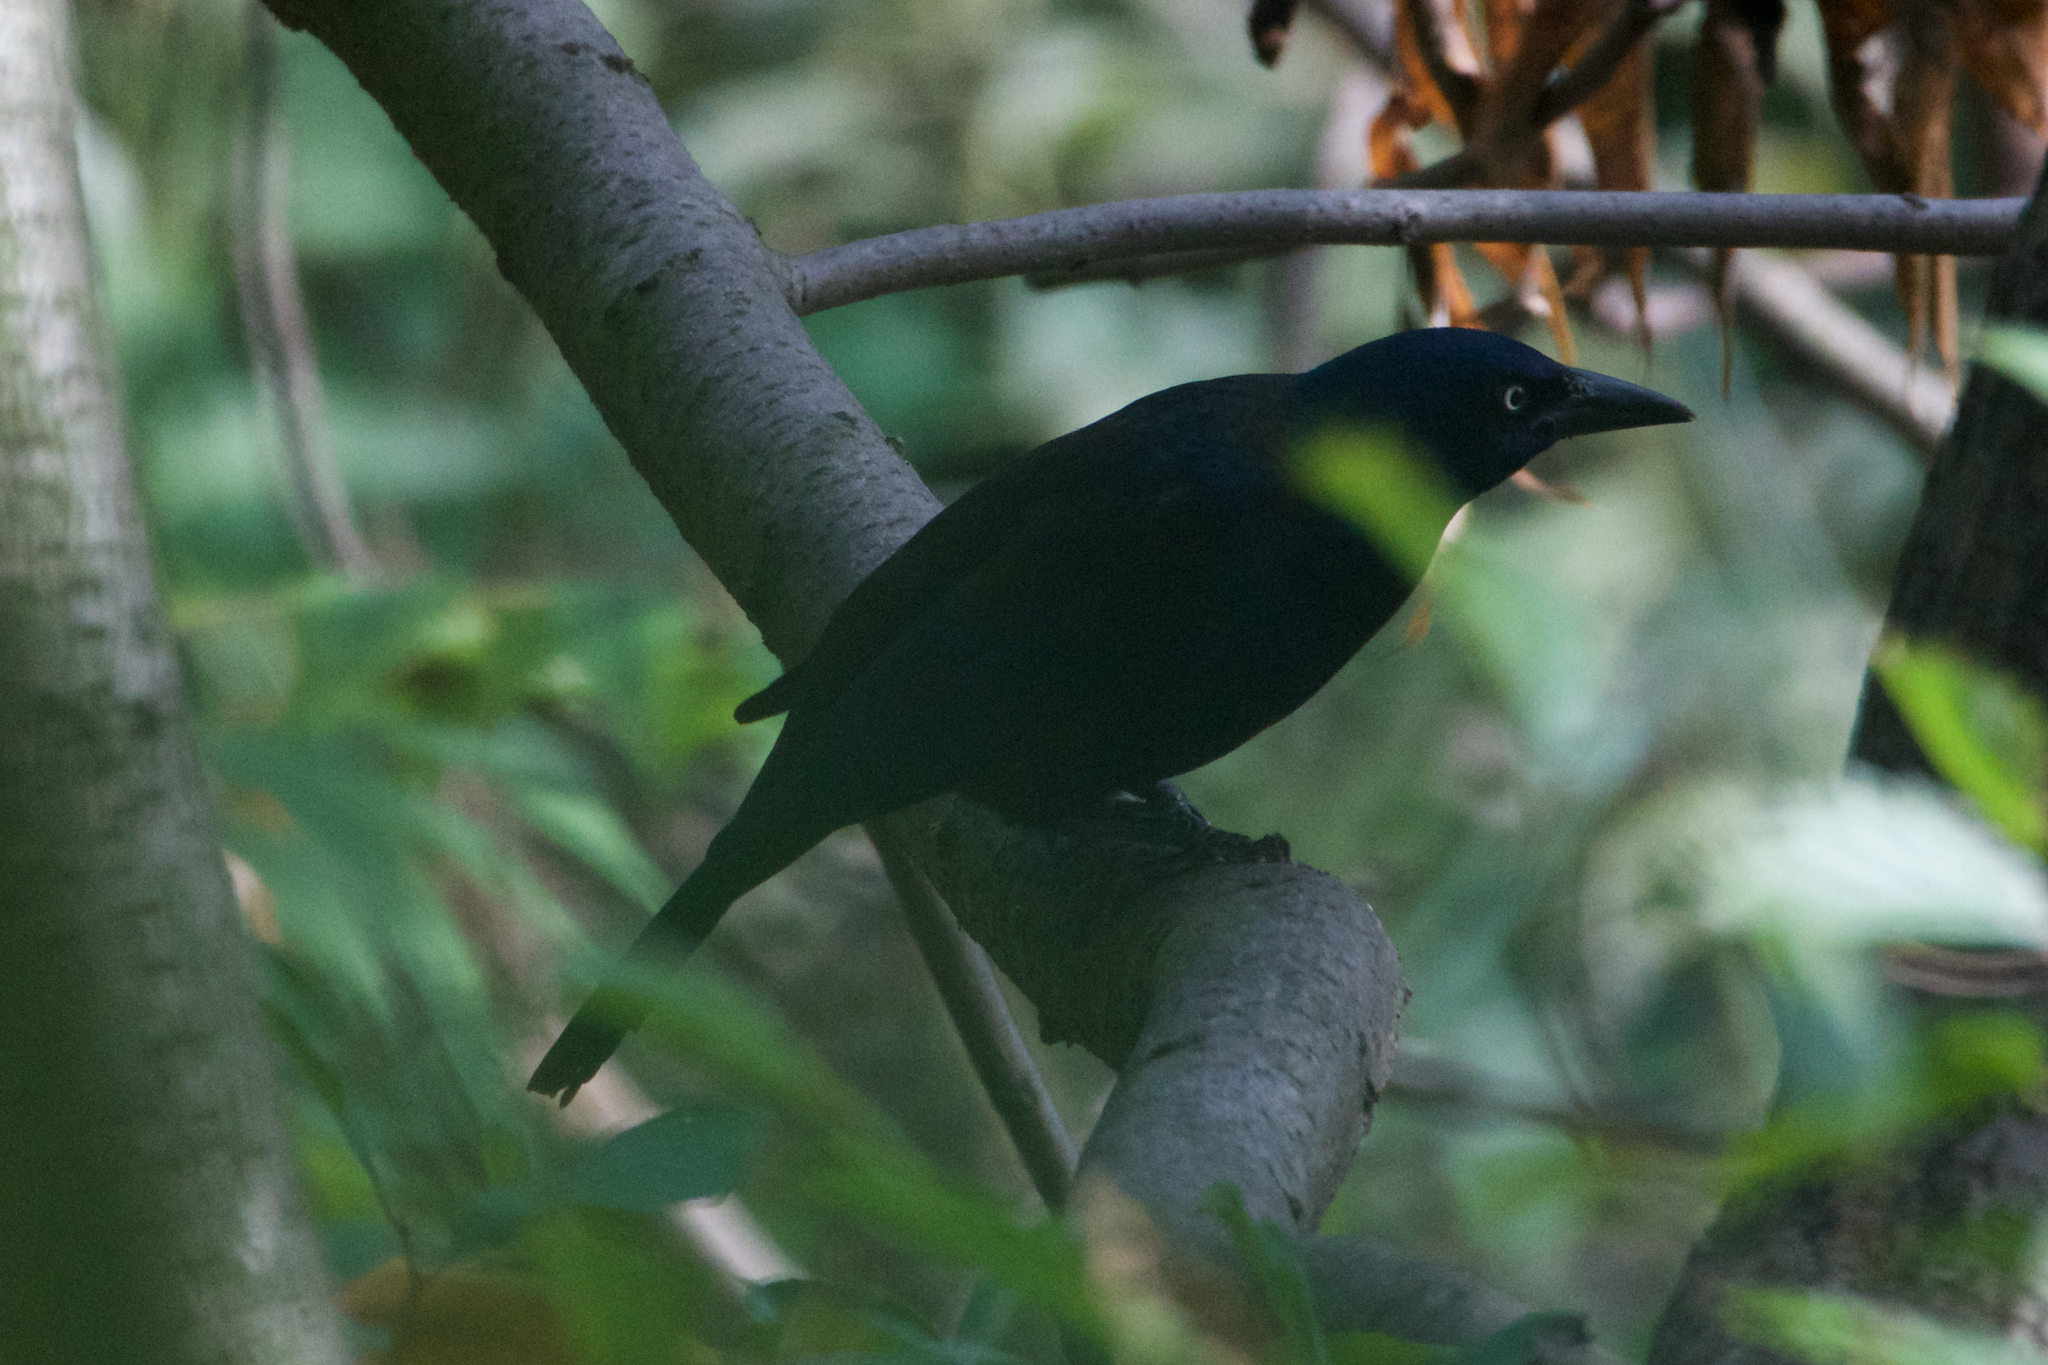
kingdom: Animalia
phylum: Chordata
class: Aves
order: Passeriformes
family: Icteridae
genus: Quiscalus
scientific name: Quiscalus quiscula
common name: Common grackle
